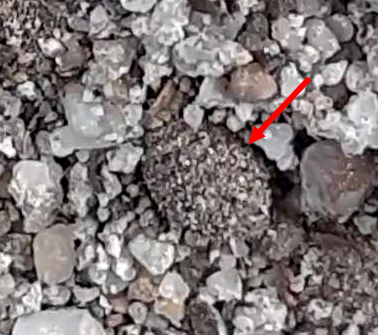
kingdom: Animalia
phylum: Arthropoda
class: Insecta
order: Neuroptera
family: Myrmeleontidae
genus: Myrmeleon
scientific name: Myrmeleon formicarius
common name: Ant-lion
